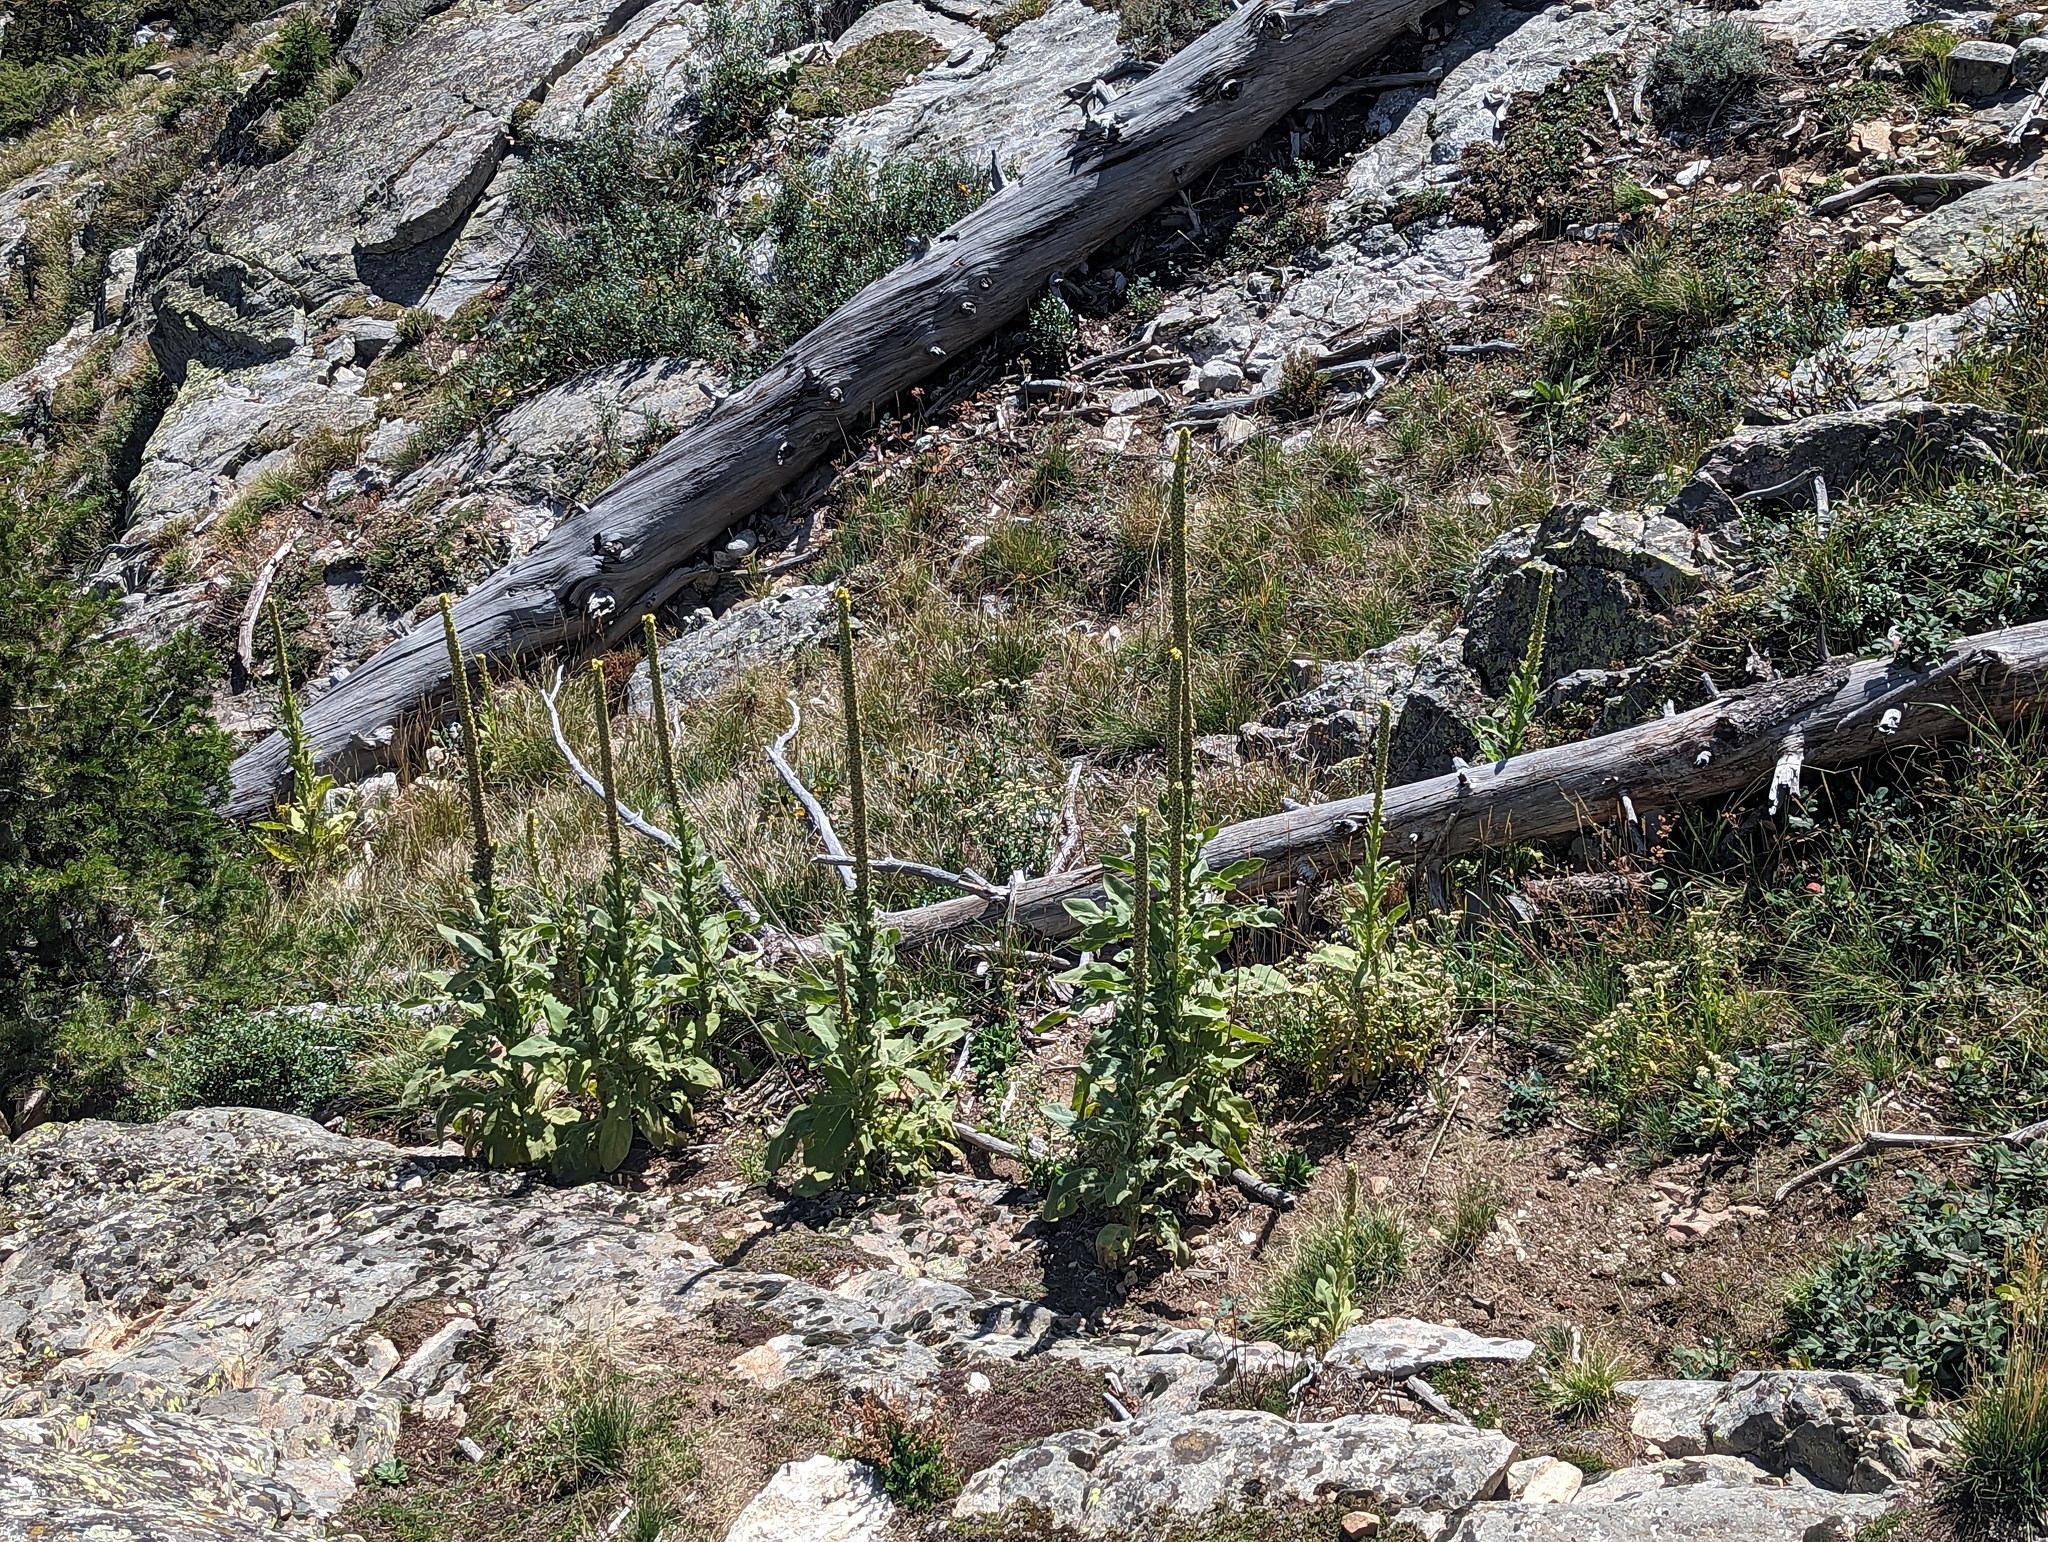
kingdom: Plantae
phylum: Tracheophyta
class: Magnoliopsida
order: Lamiales
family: Scrophulariaceae
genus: Verbascum
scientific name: Verbascum thapsus
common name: Common mullein
